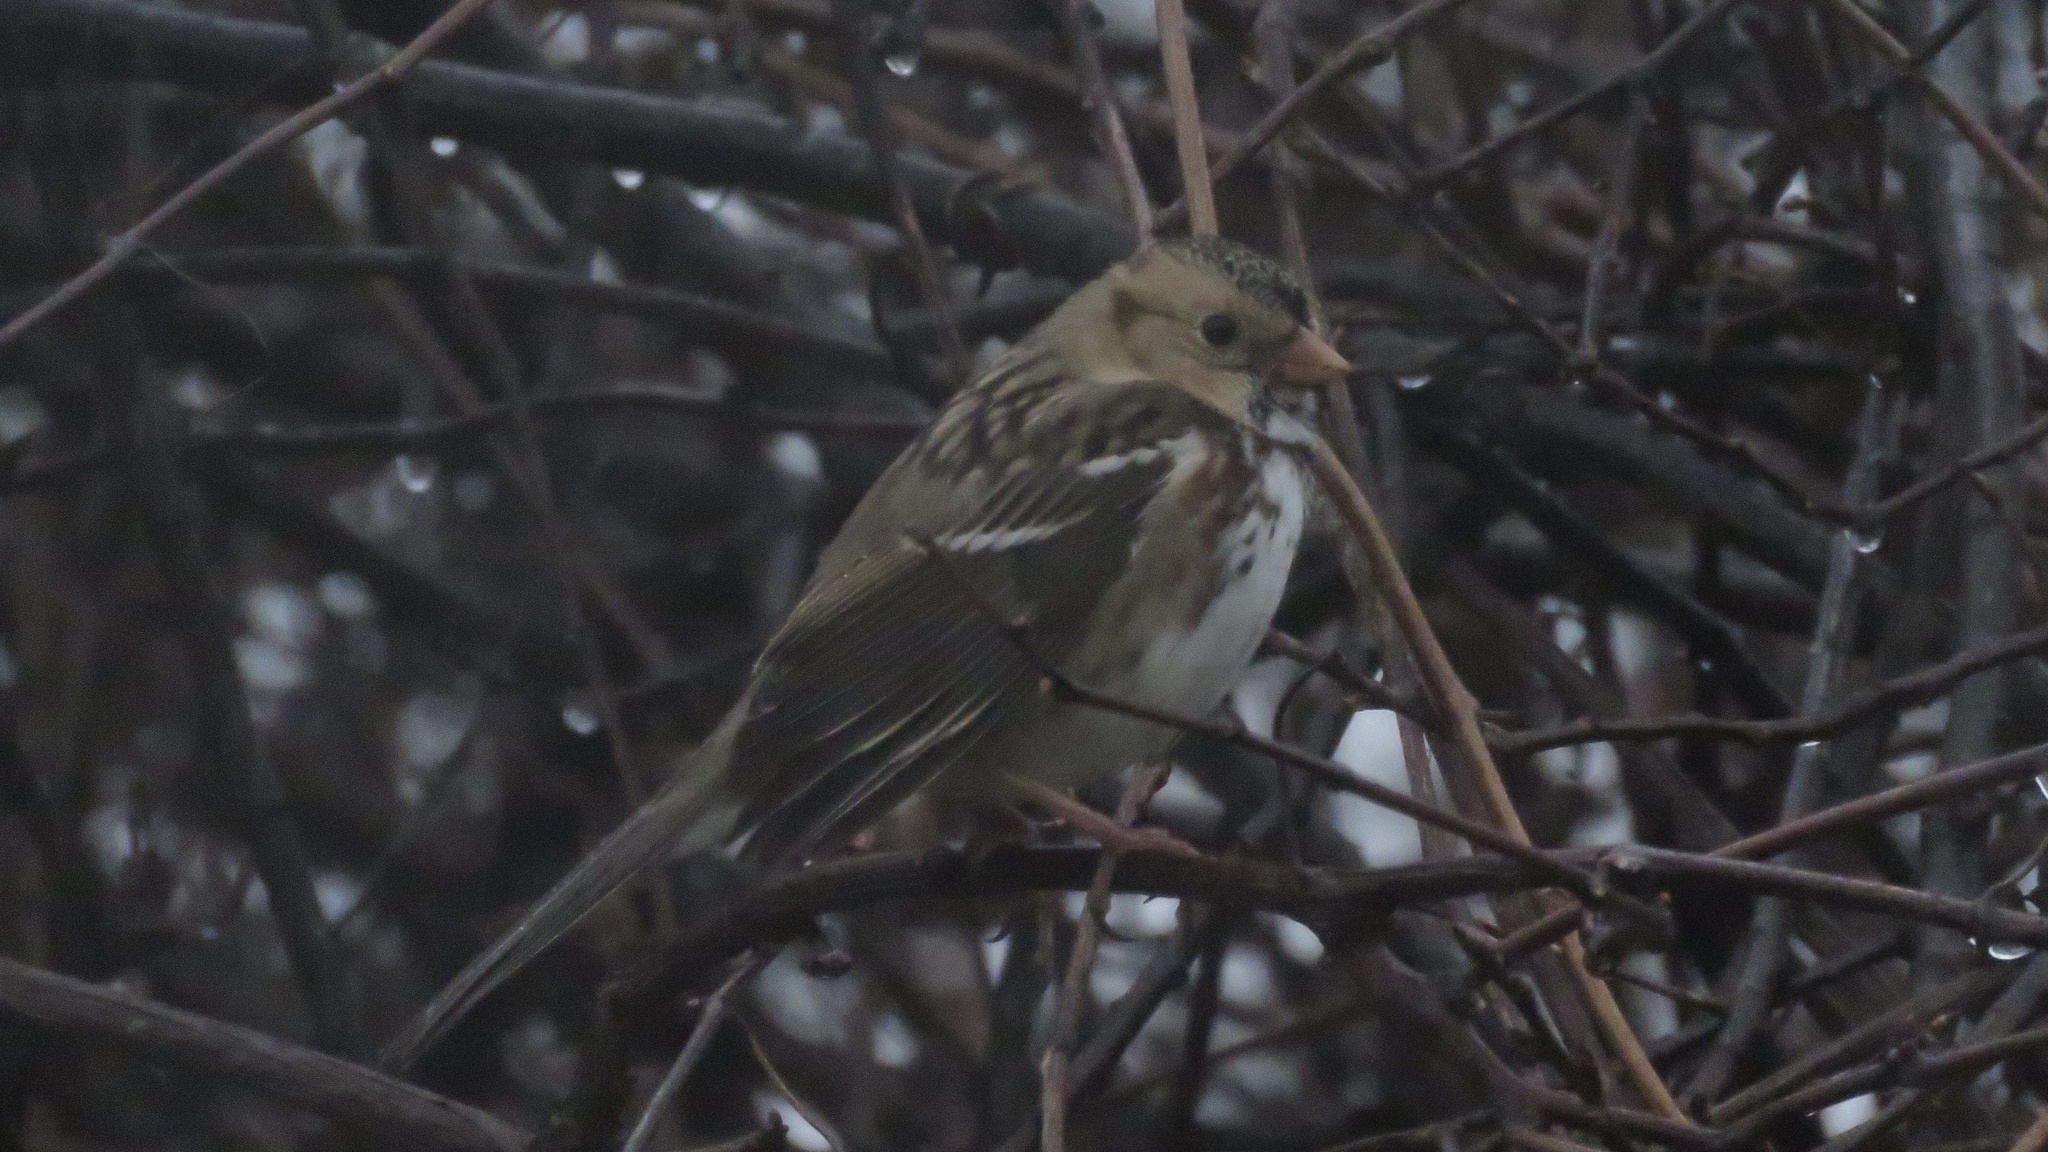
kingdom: Animalia
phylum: Chordata
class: Aves
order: Passeriformes
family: Passerellidae
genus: Zonotrichia
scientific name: Zonotrichia querula
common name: Harris's sparrow
